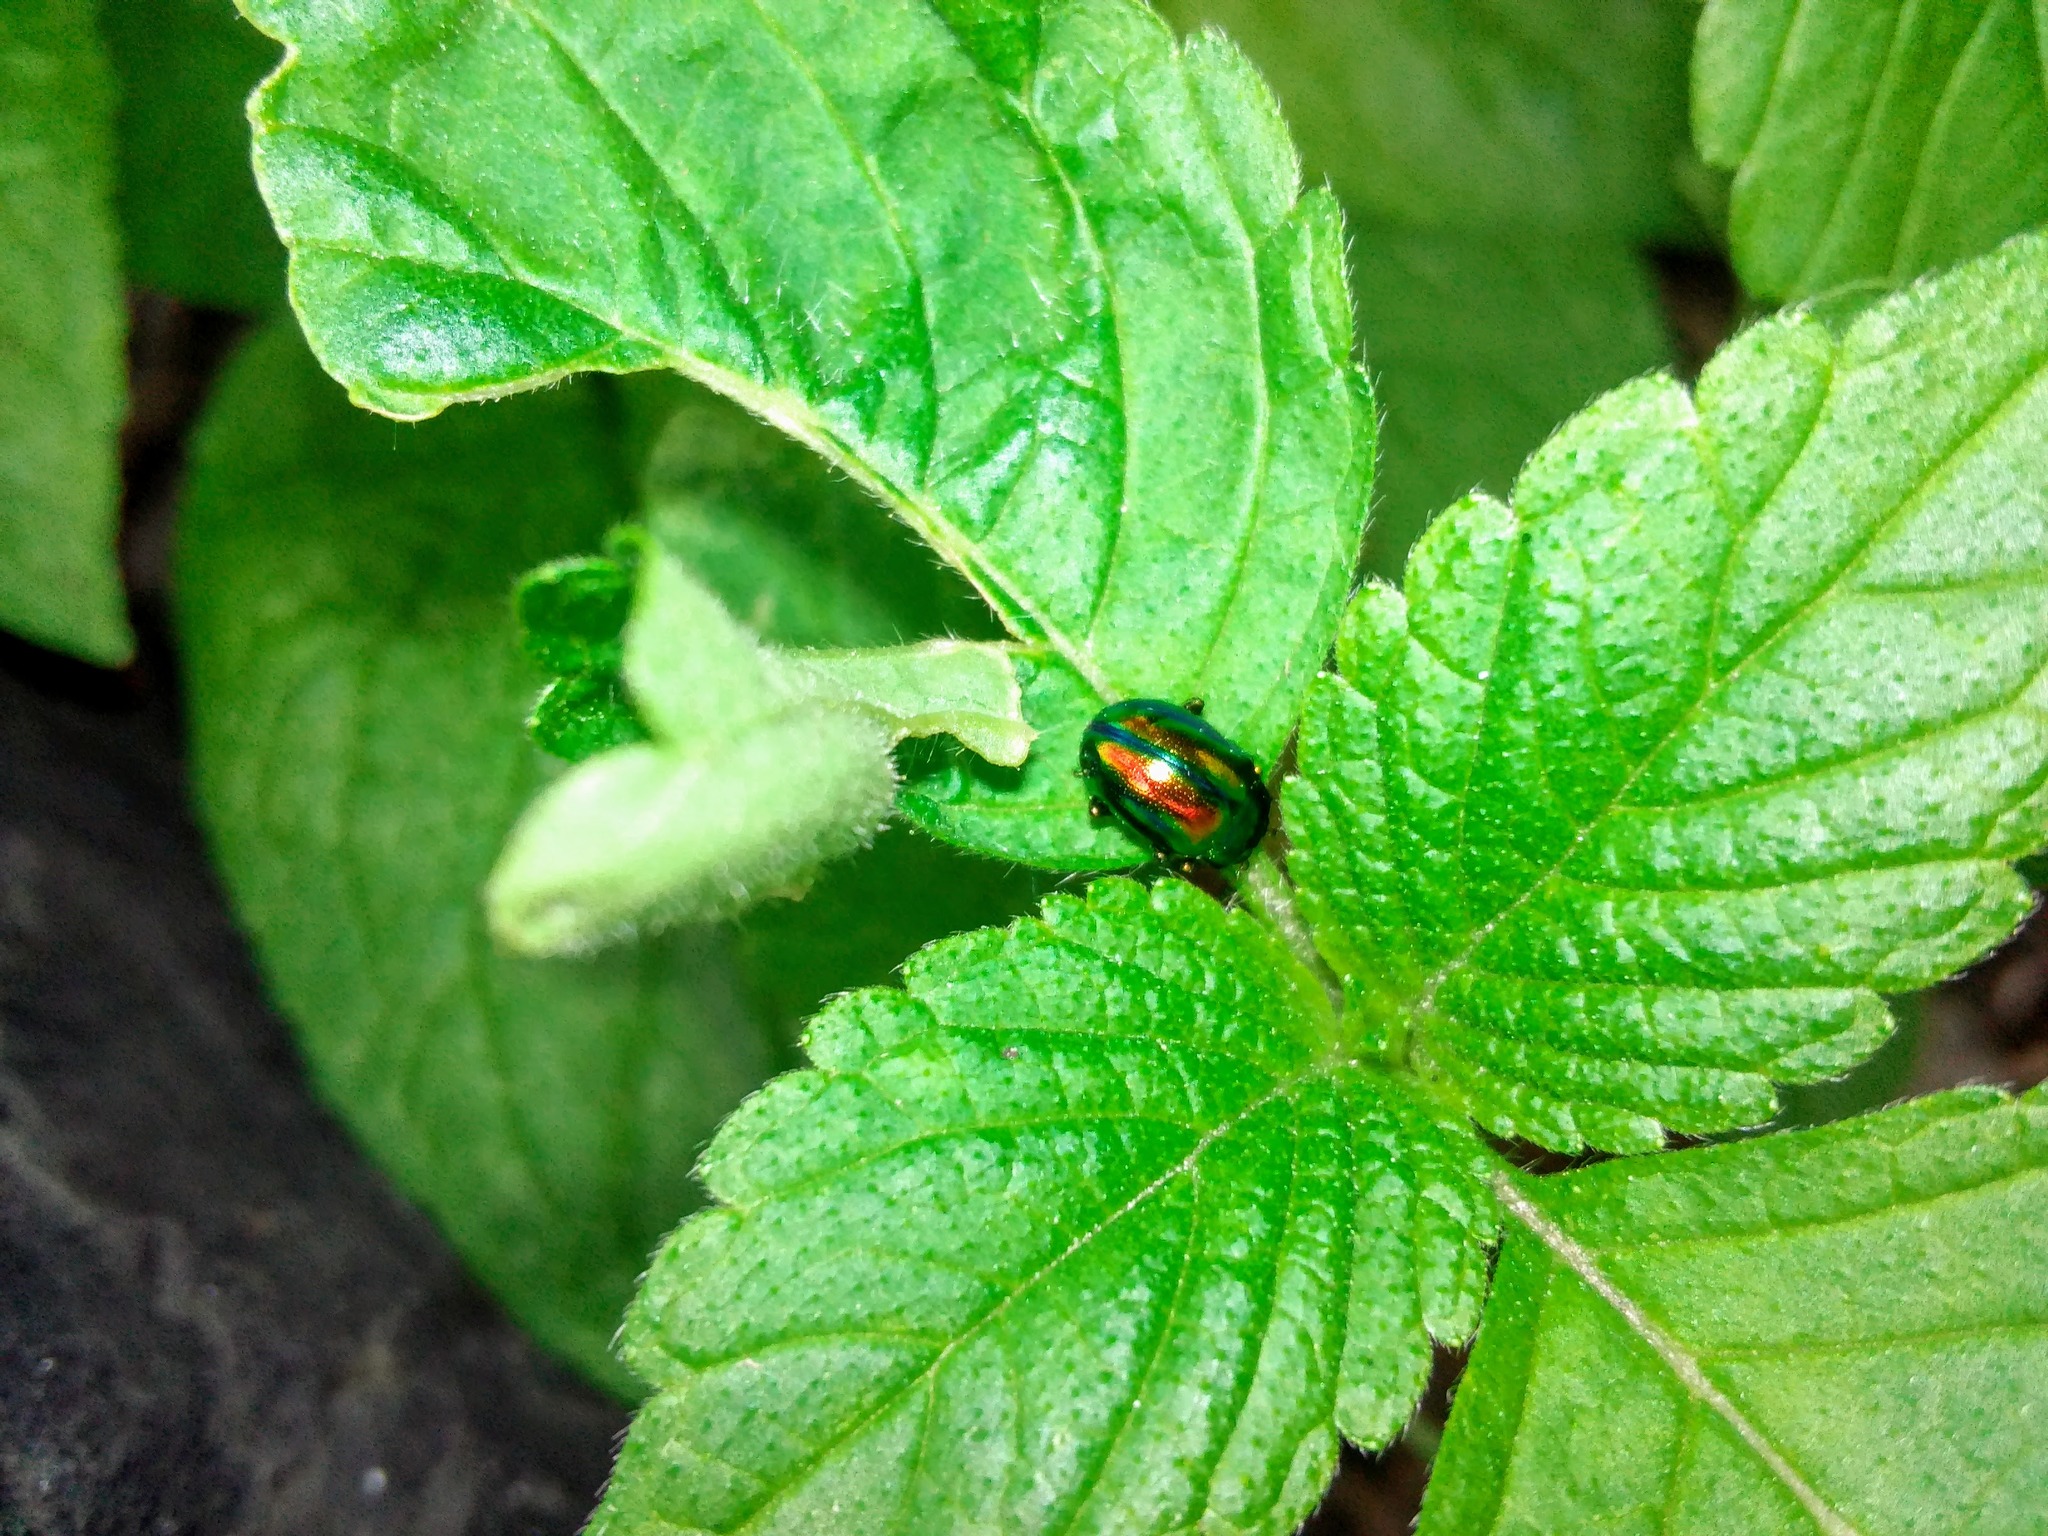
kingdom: Animalia
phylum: Arthropoda
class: Insecta
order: Coleoptera
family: Chrysomelidae
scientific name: Chrysomelidae
